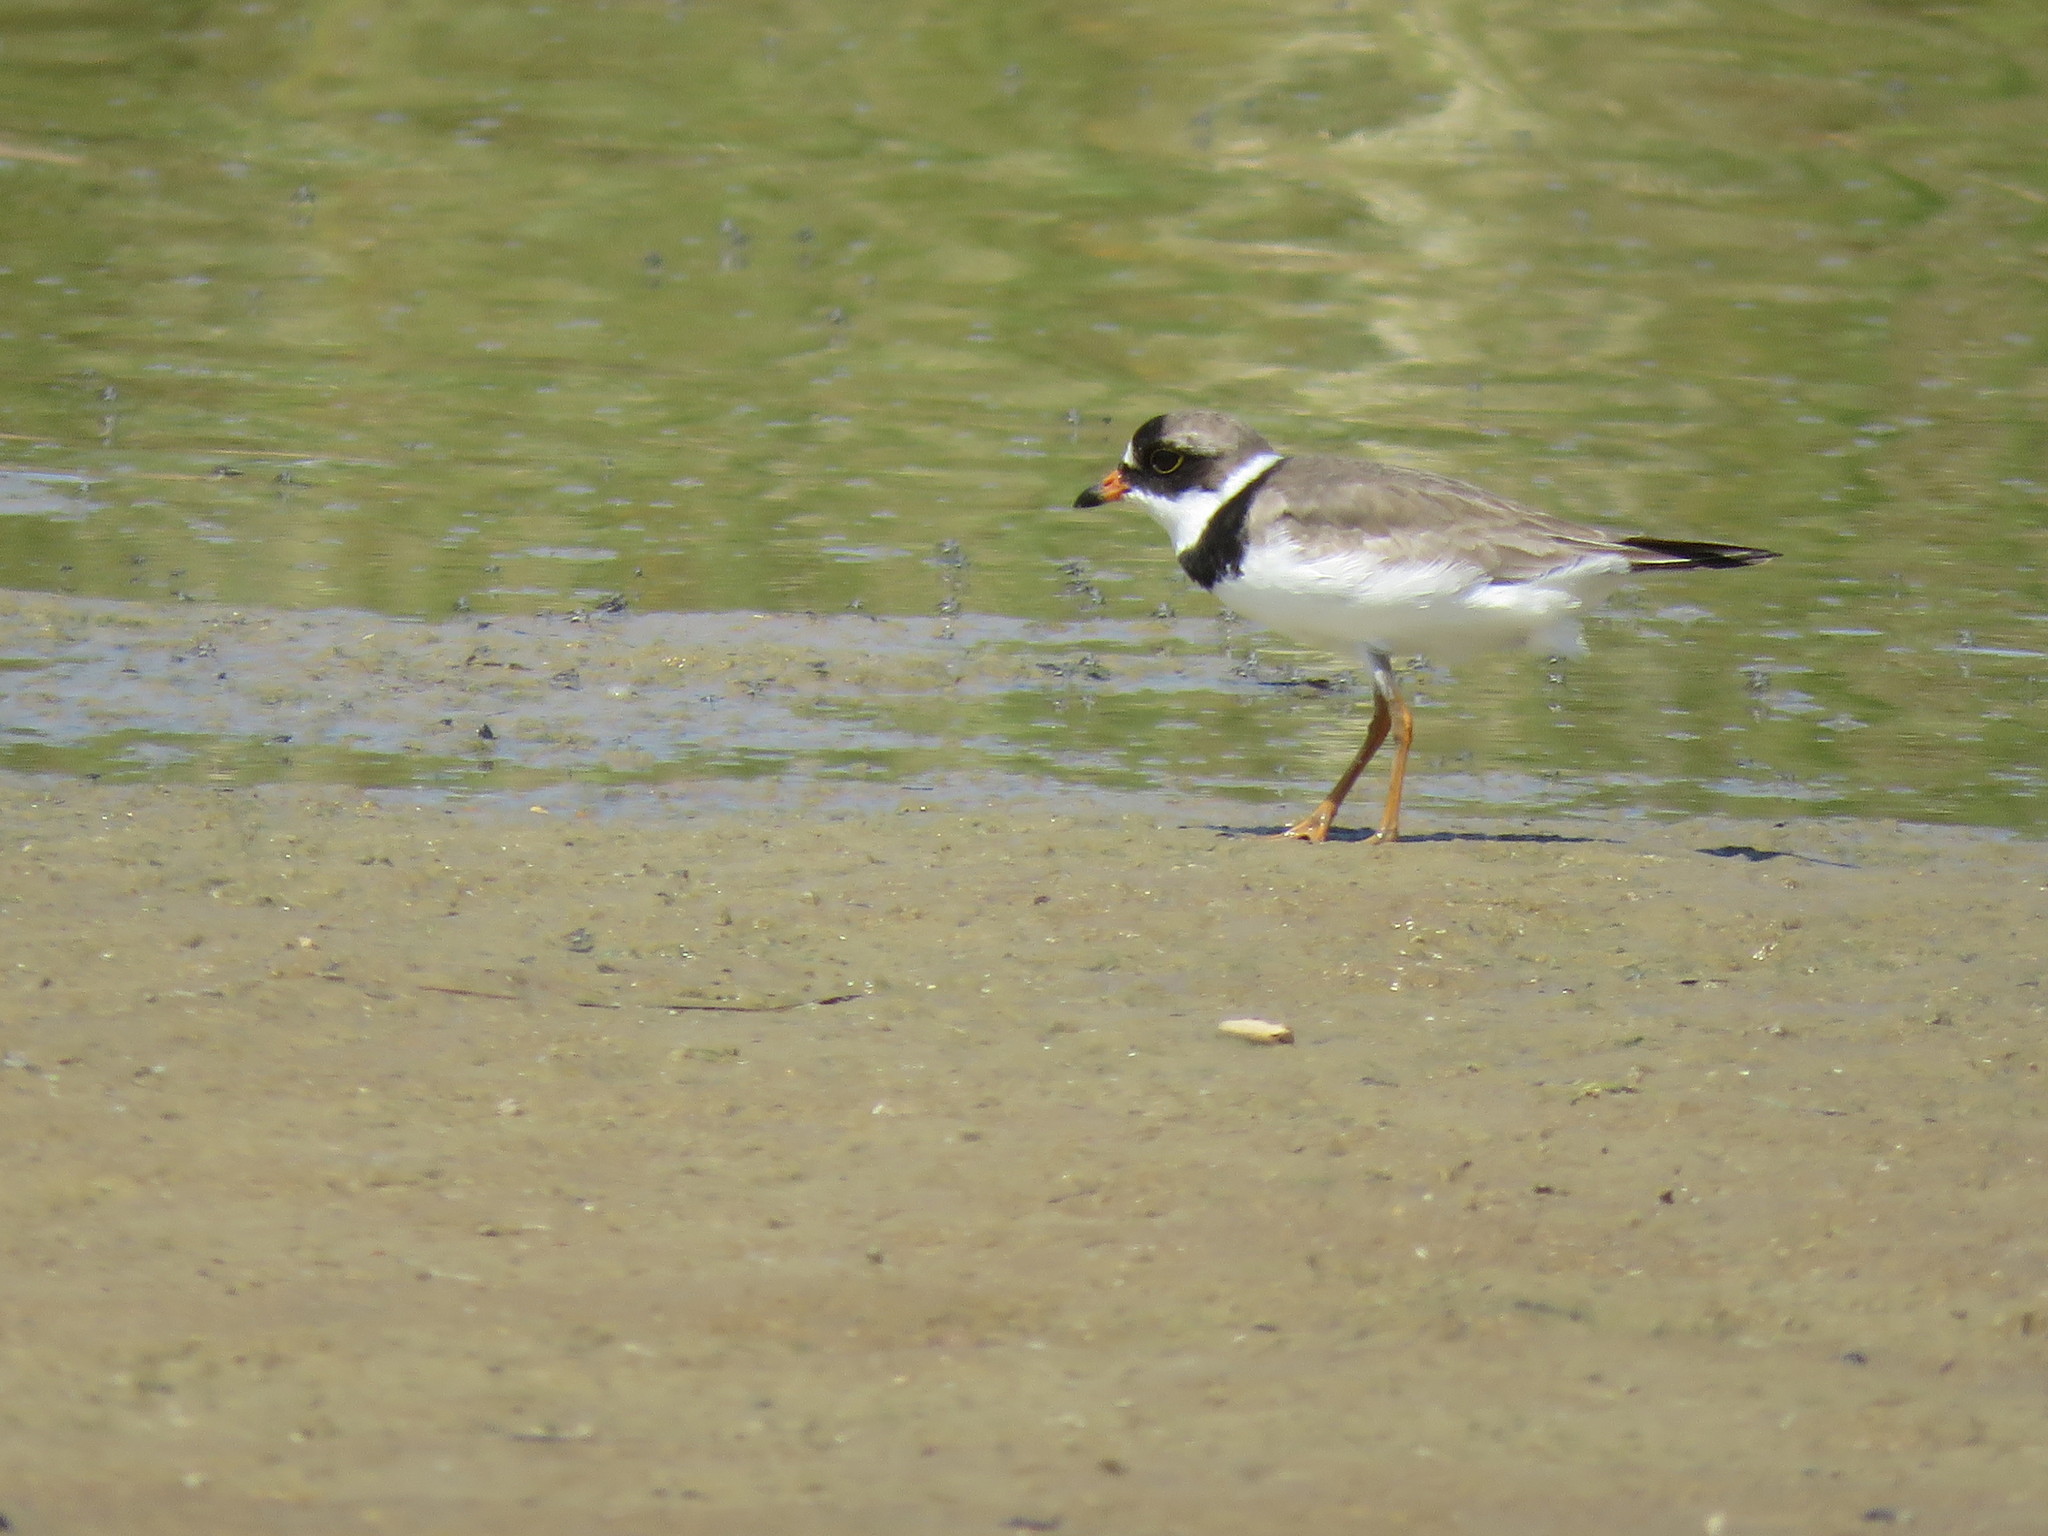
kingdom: Animalia
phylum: Chordata
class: Aves
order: Charadriiformes
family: Charadriidae
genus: Charadrius
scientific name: Charadrius semipalmatus
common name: Semipalmated plover
